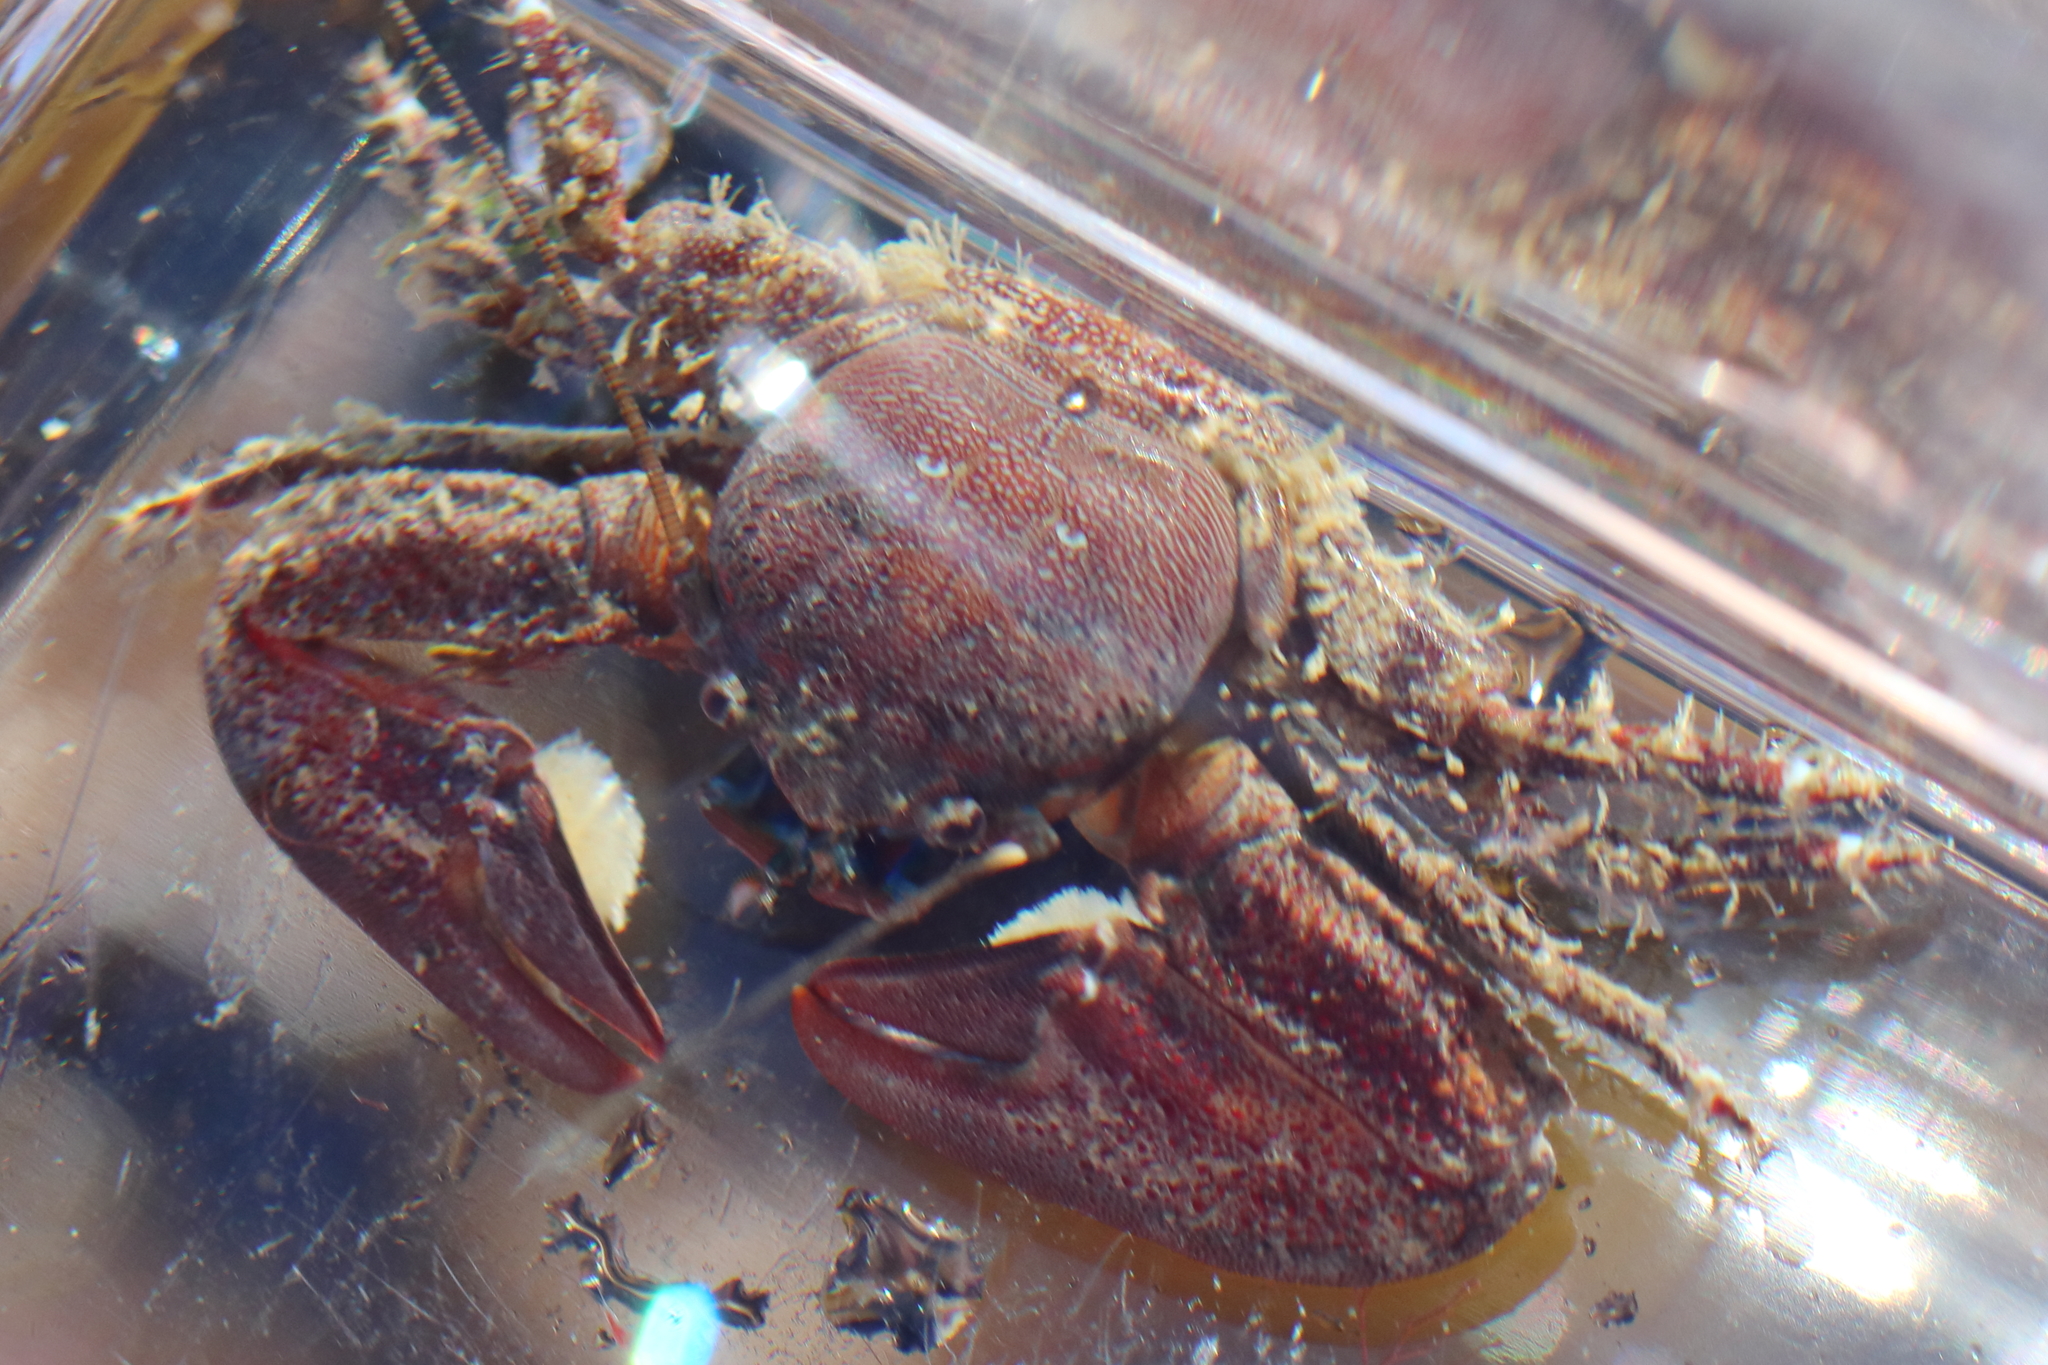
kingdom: Animalia
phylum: Arthropoda
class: Malacostraca
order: Decapoda
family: Porcellanidae
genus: Petrolisthes
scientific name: Petrolisthes eriomerus
